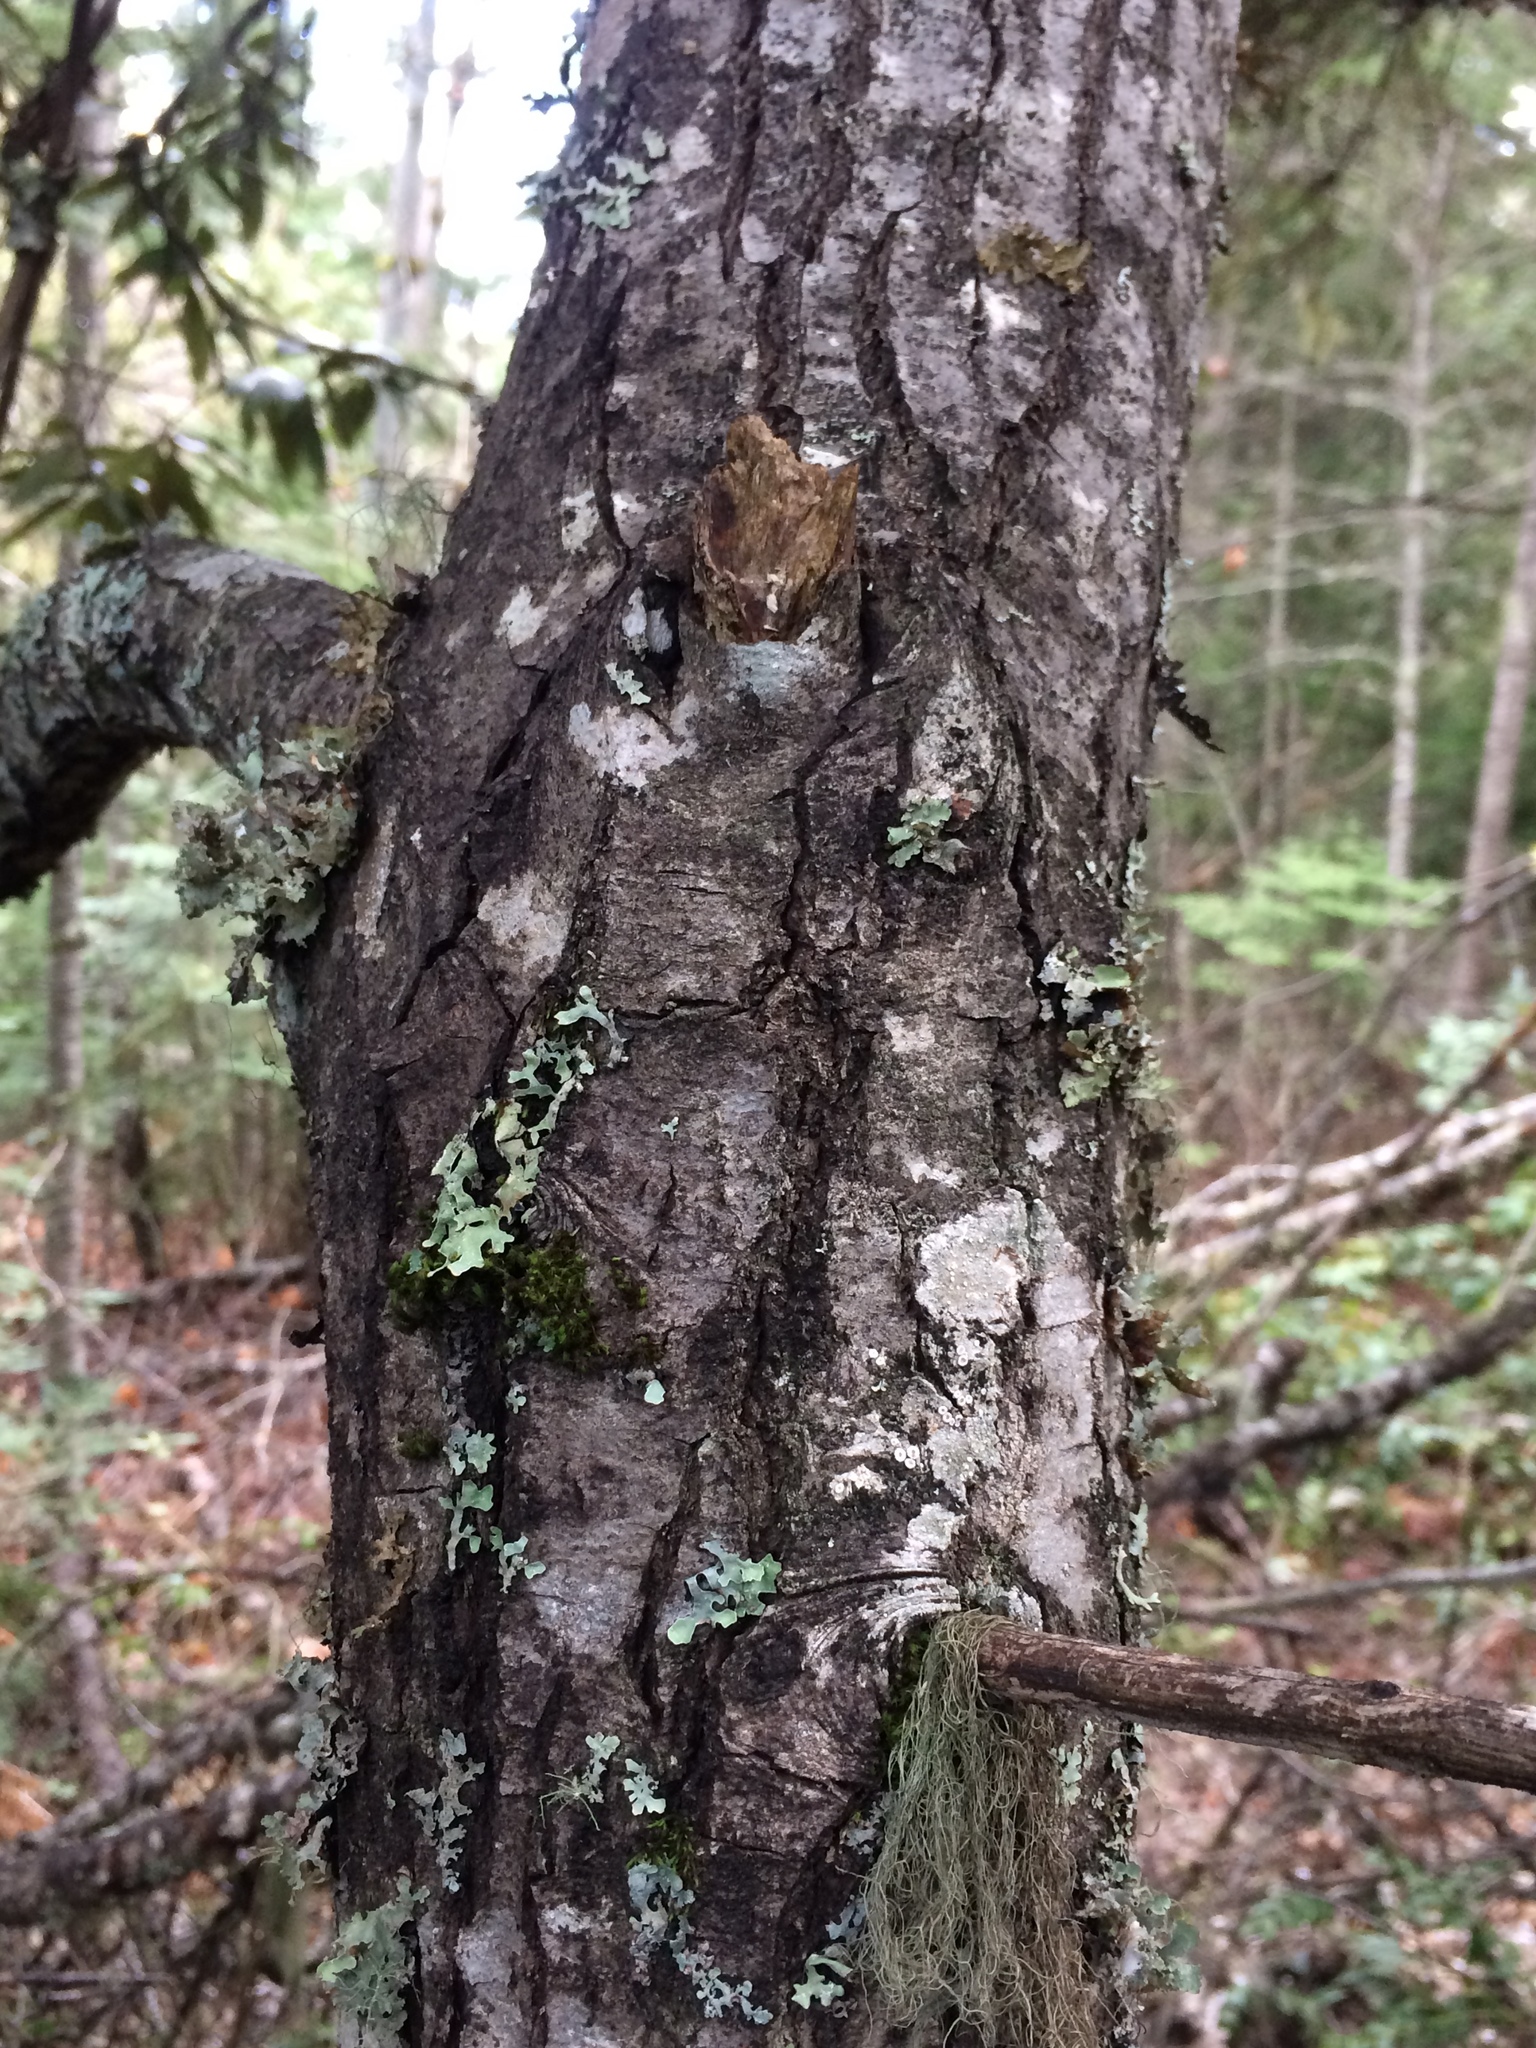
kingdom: Plantae
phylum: Tracheophyta
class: Magnoliopsida
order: Fagales
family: Fagaceae
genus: Chrysolepis
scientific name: Chrysolepis chrysophylla
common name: Giant chinquapin
